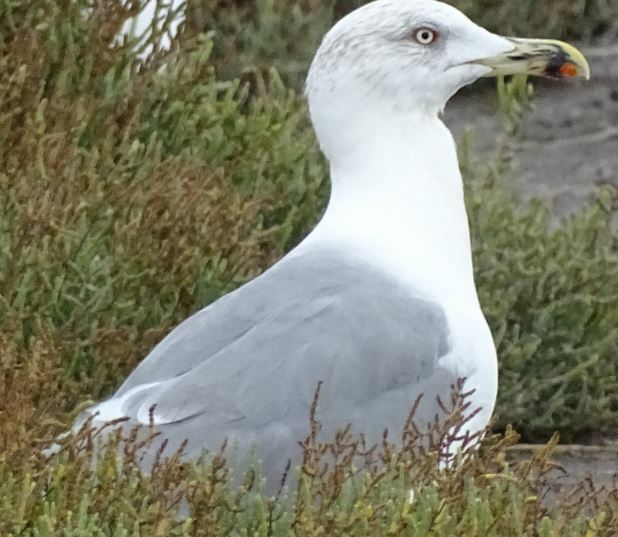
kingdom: Animalia
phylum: Chordata
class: Aves
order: Charadriiformes
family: Laridae
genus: Larus
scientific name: Larus michahellis
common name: Yellow-legged gull
